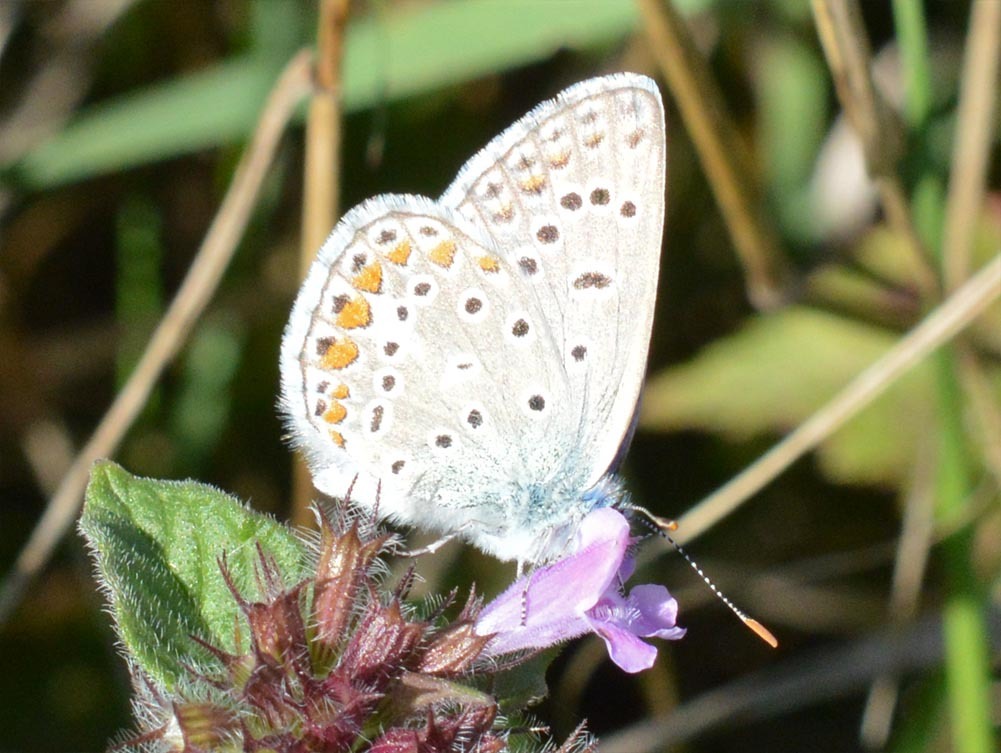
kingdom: Animalia
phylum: Arthropoda
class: Insecta
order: Lepidoptera
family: Lycaenidae
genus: Polyommatus
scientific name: Polyommatus icarus
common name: Common blue
